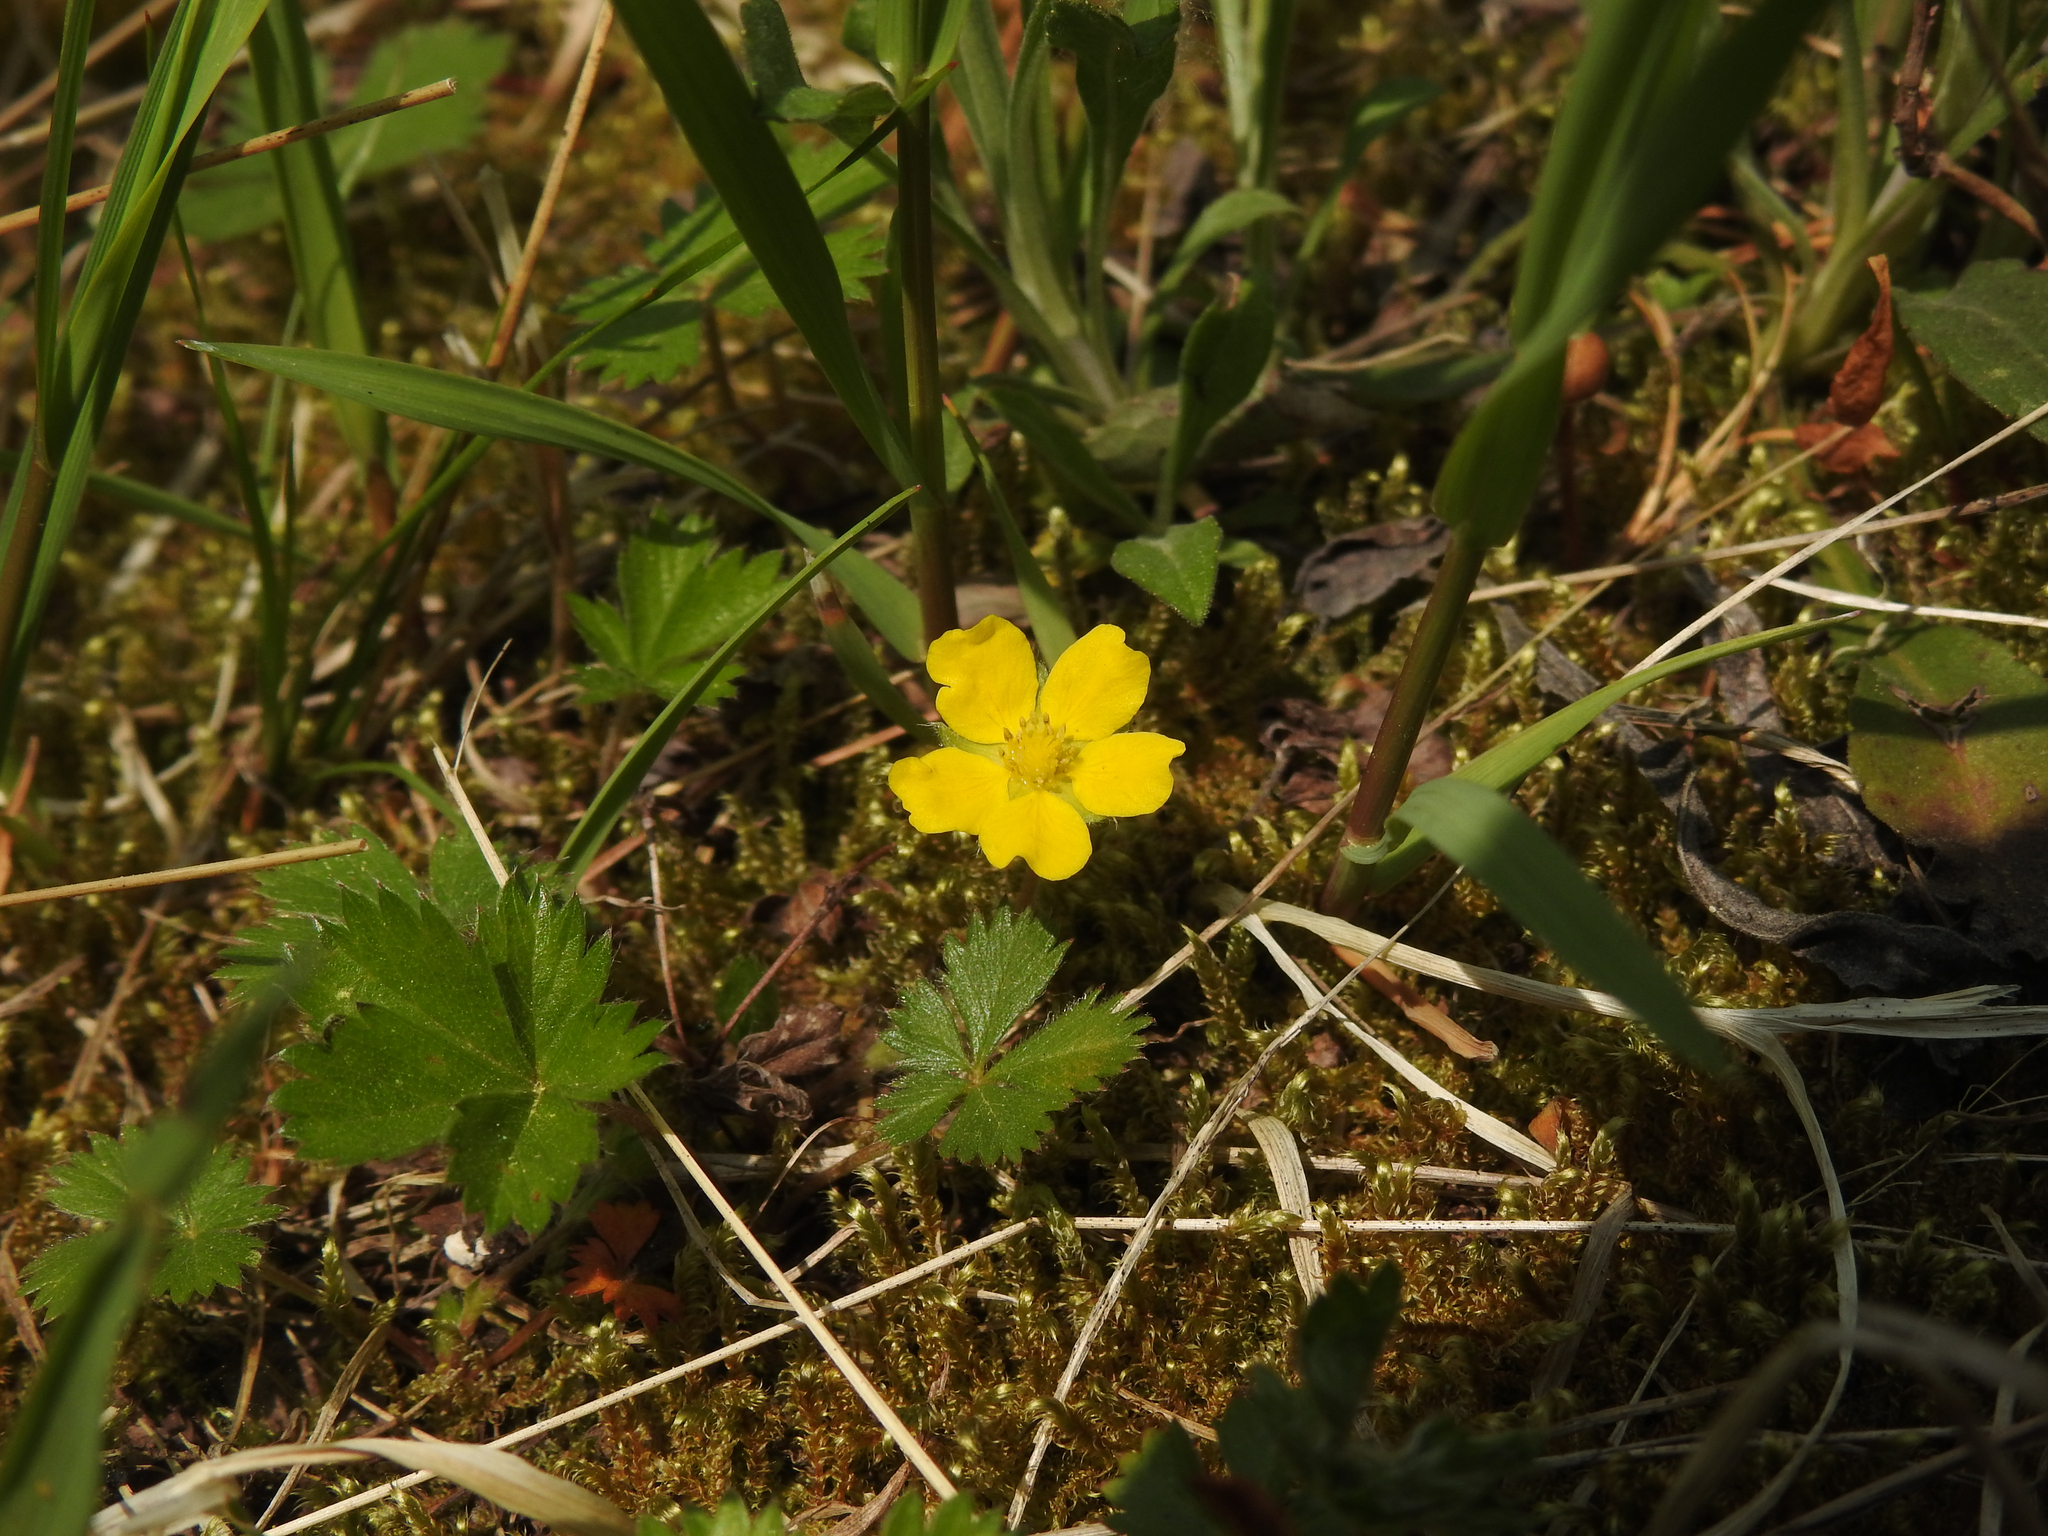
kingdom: Plantae
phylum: Tracheophyta
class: Magnoliopsida
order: Rosales
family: Rosaceae
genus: Potentilla
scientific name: Potentilla canadensis
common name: Canada cinquefoil
